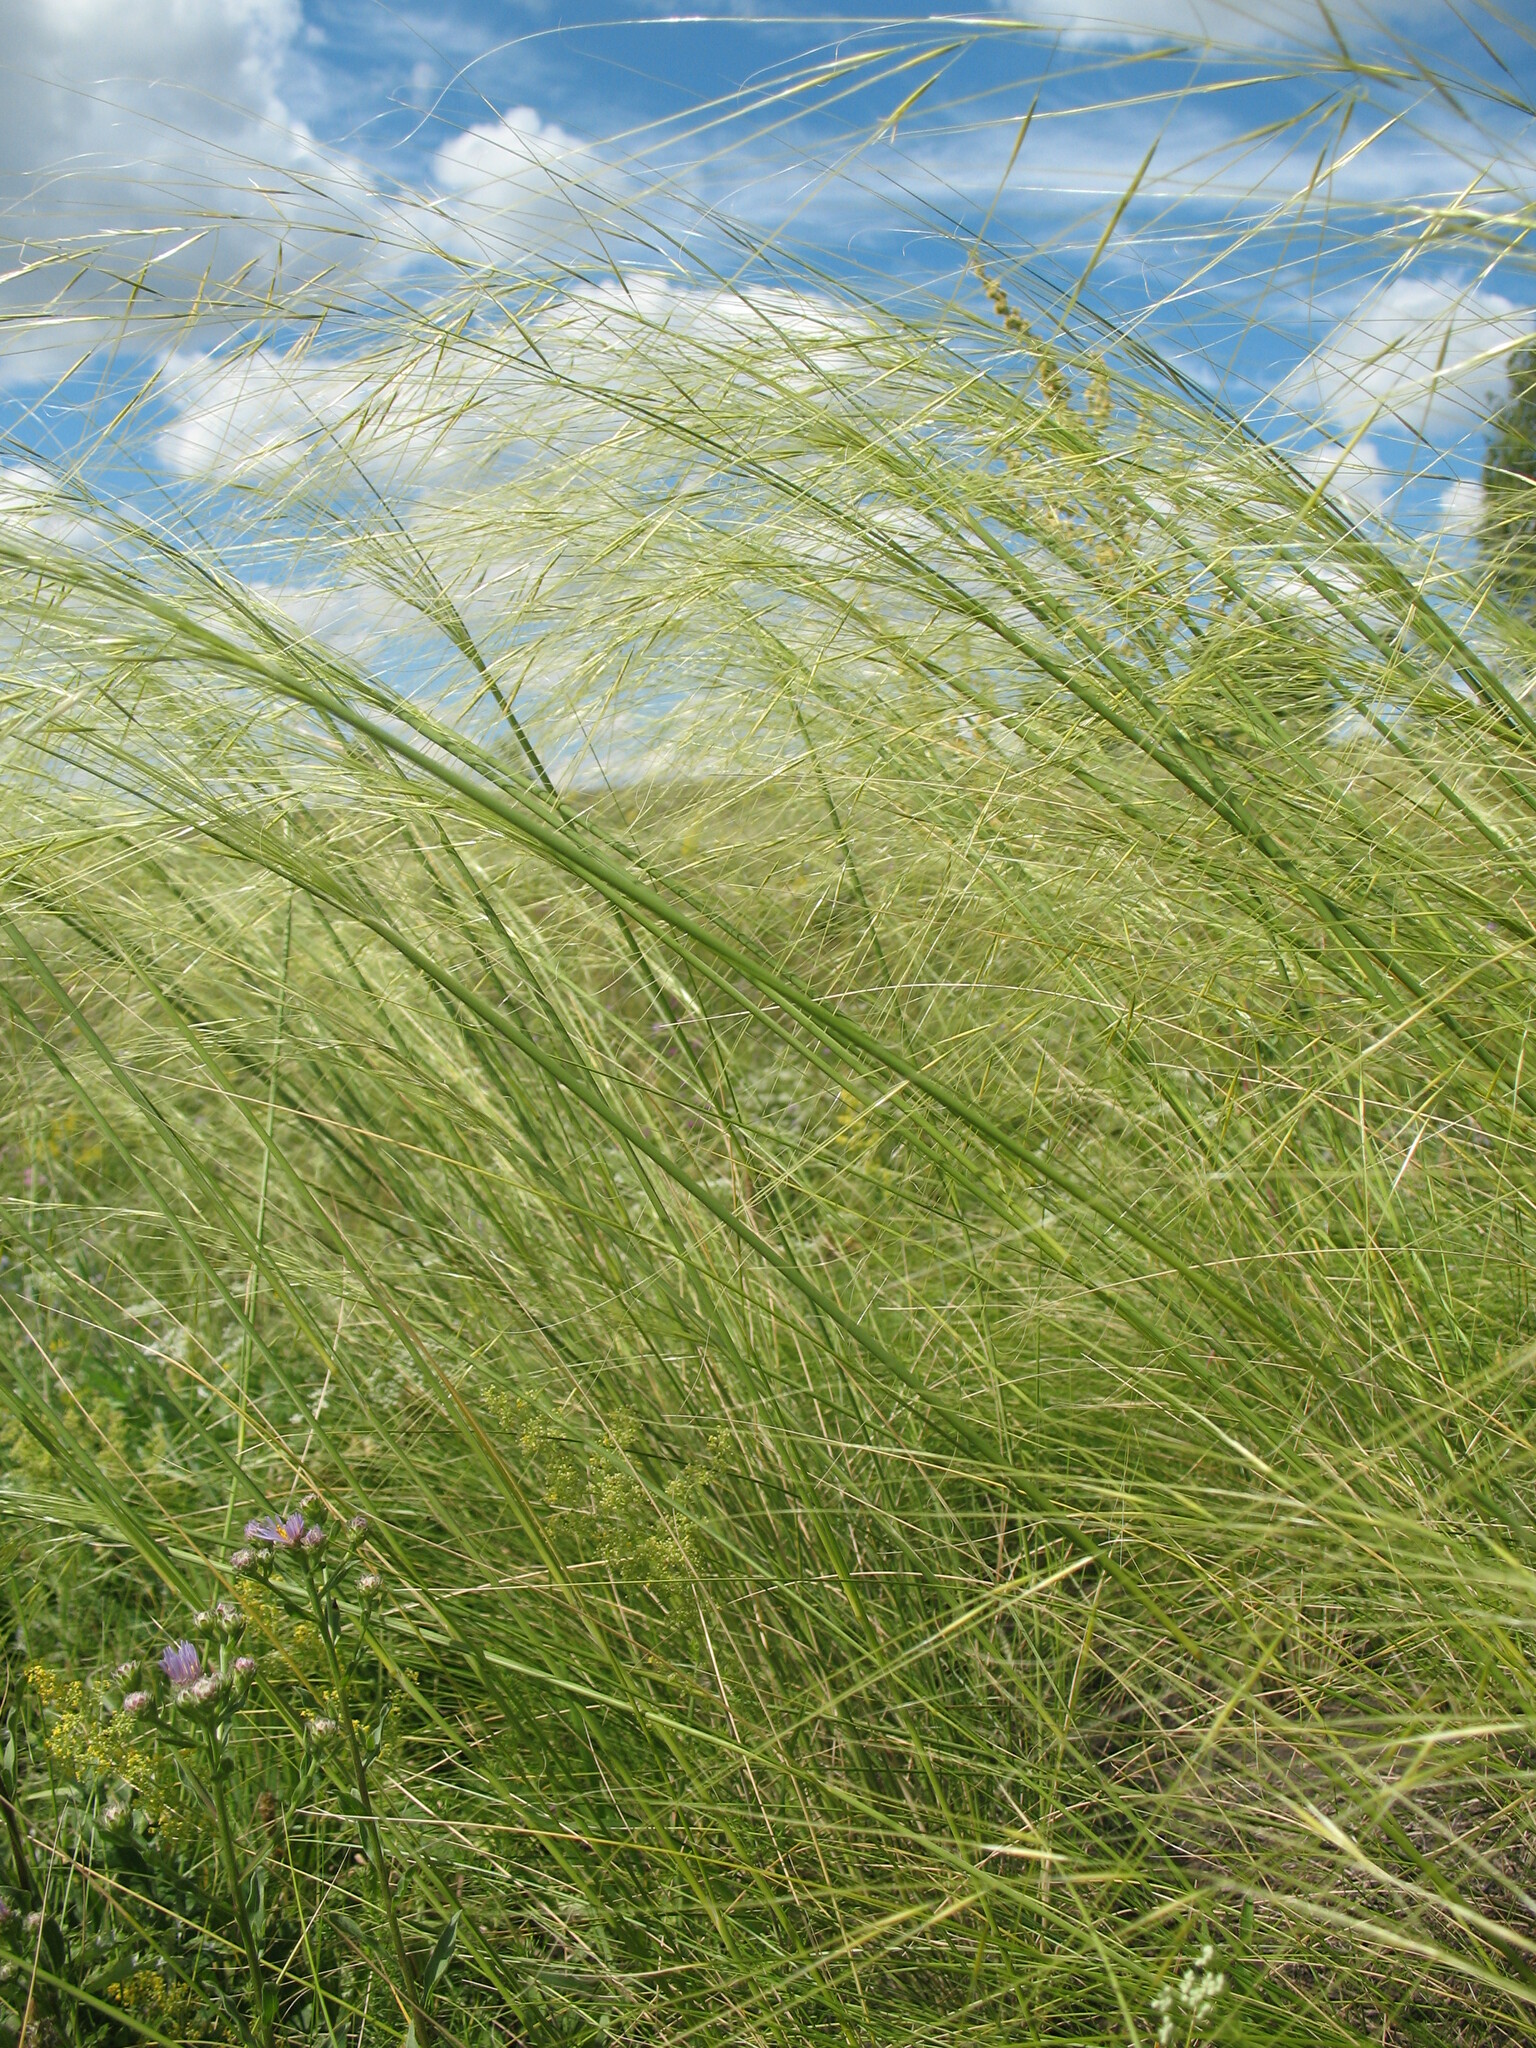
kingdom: Plantae
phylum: Tracheophyta
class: Liliopsida
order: Poales
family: Poaceae
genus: Stipa
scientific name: Stipa capillata
